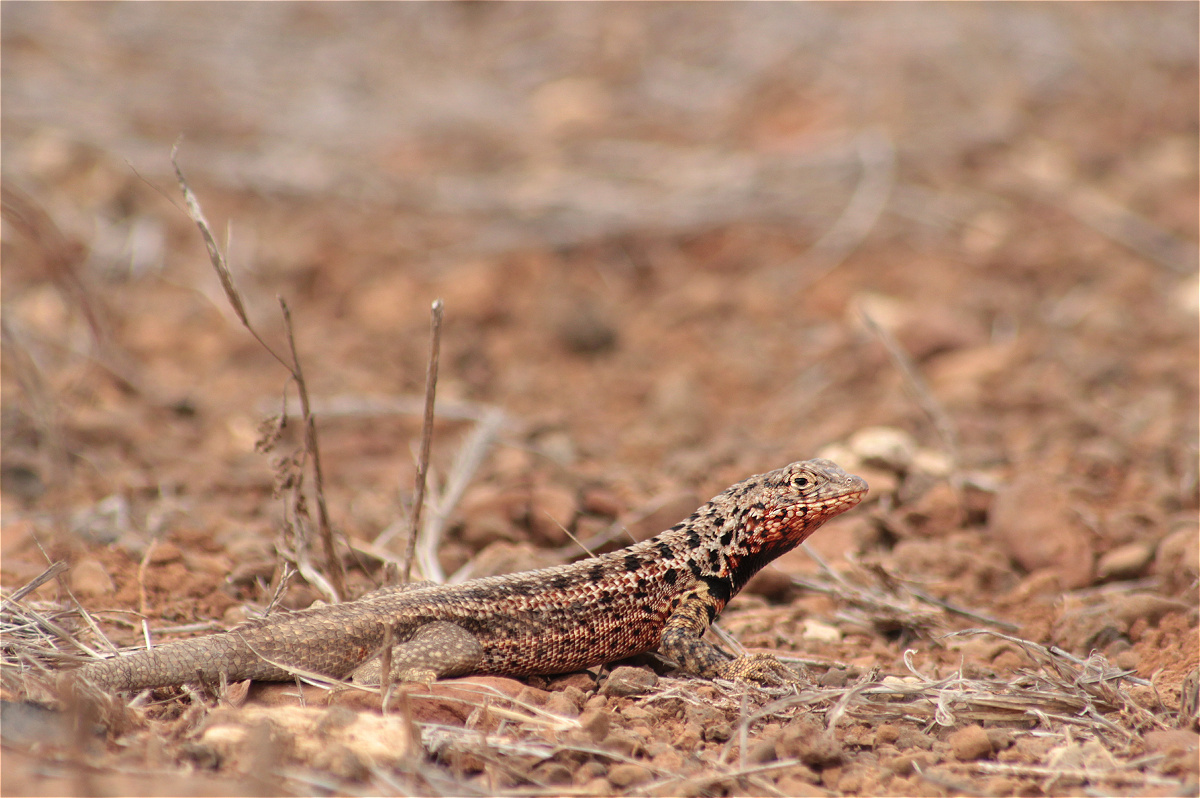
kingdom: Animalia
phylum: Chordata
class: Squamata
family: Tropiduridae
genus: Microlophus
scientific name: Microlophus indefatigabilis
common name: Galapagos lava lizard
